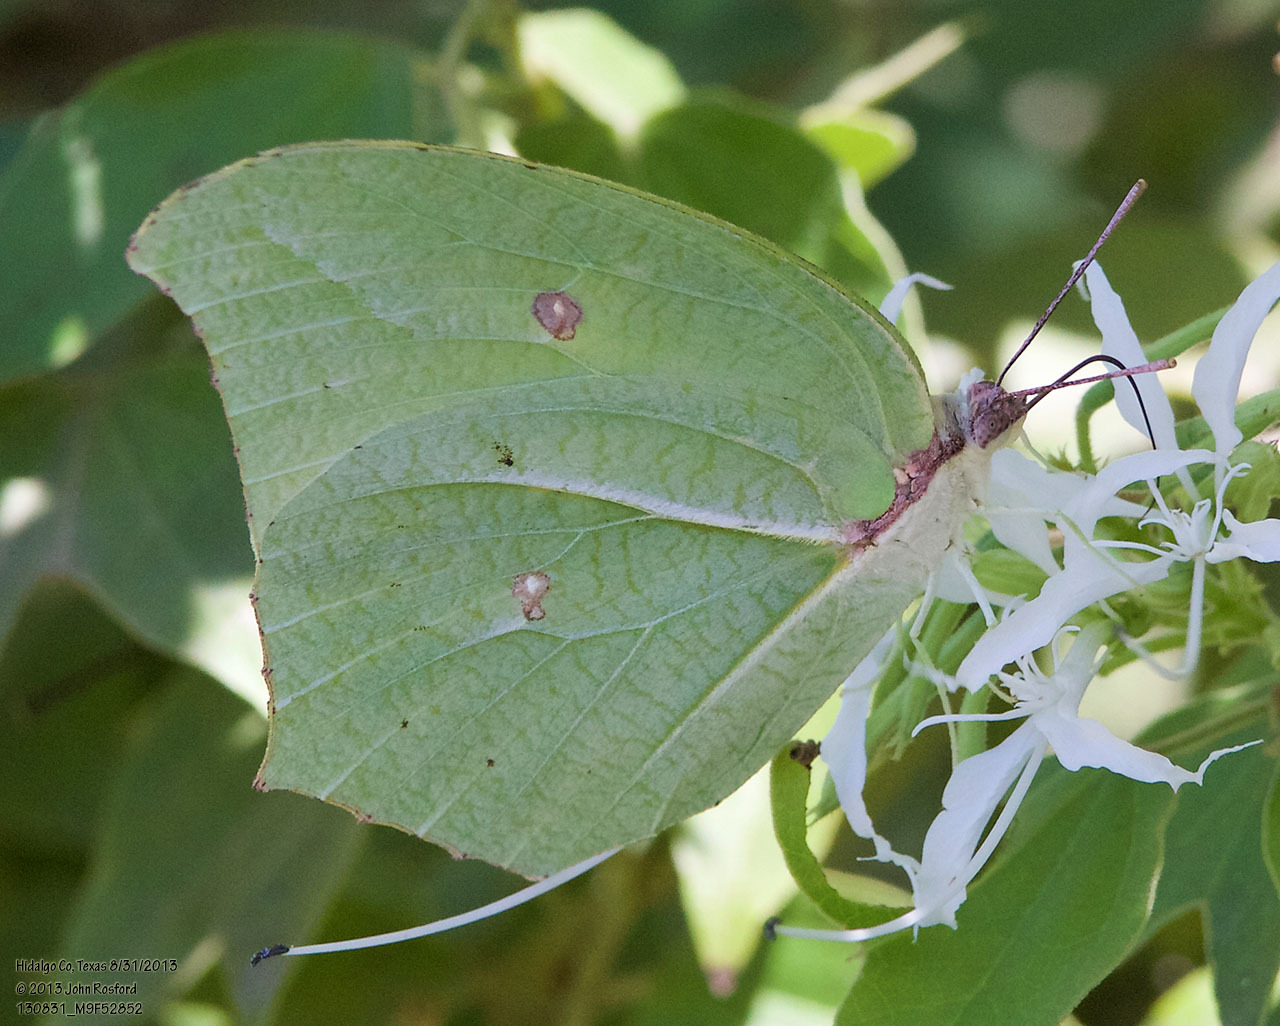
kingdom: Animalia
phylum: Arthropoda
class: Insecta
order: Lepidoptera
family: Pieridae
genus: Anteos
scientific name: Anteos maerula
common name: Angled sulphur
